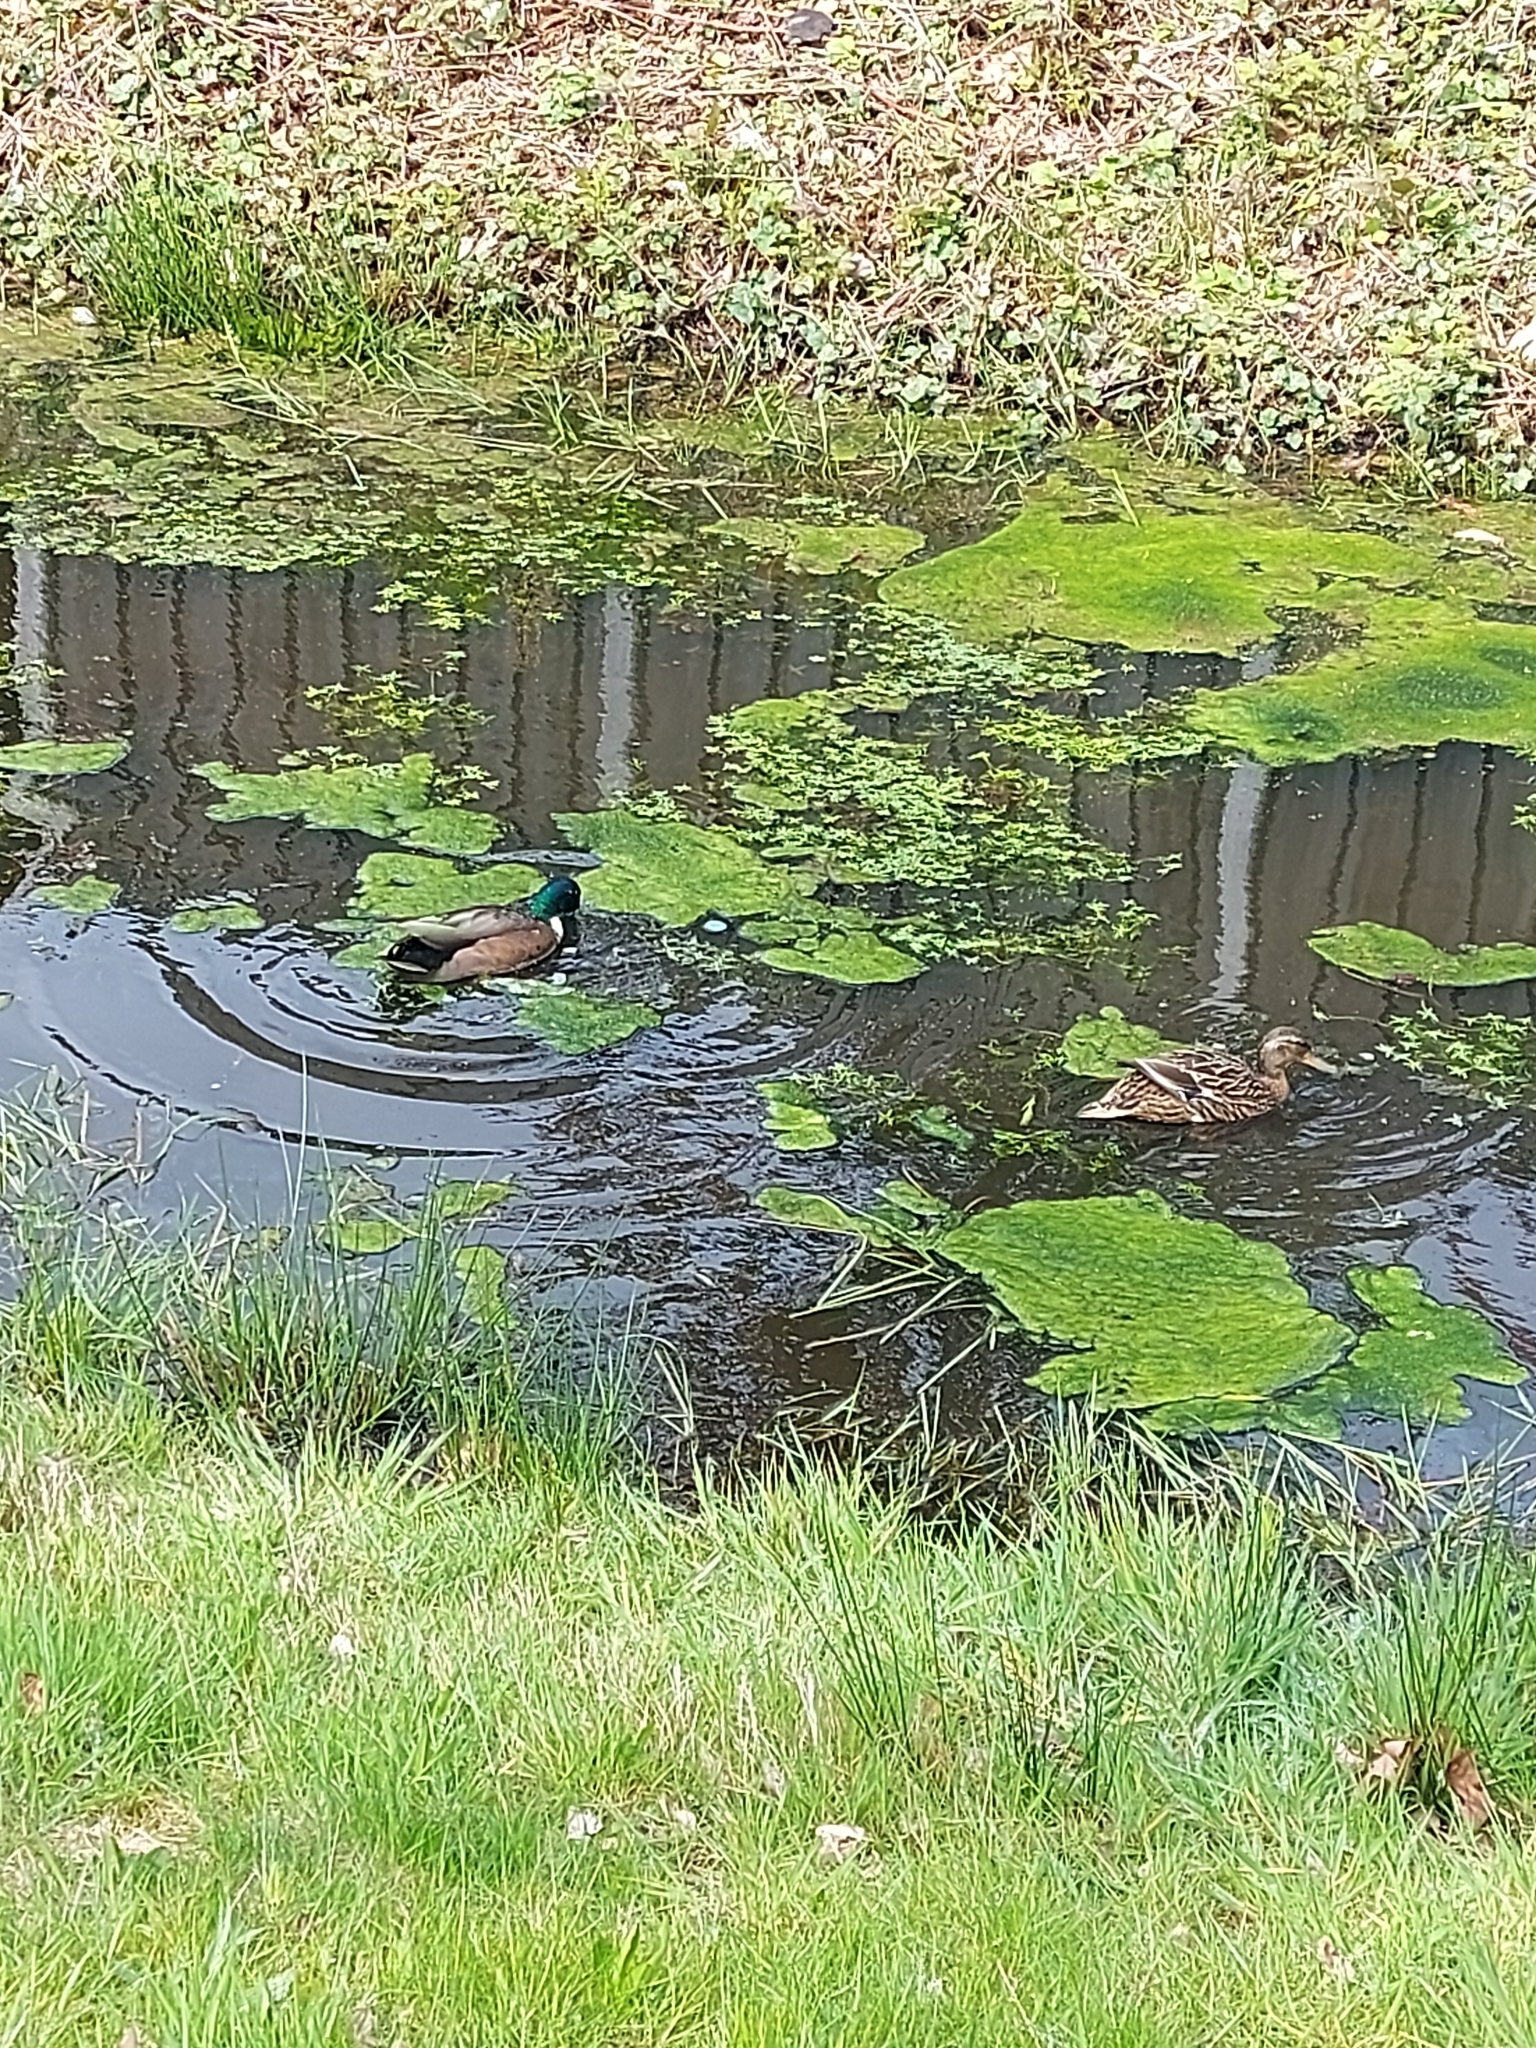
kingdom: Animalia
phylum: Chordata
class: Aves
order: Anseriformes
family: Anatidae
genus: Anas
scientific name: Anas platyrhynchos
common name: Mallard
